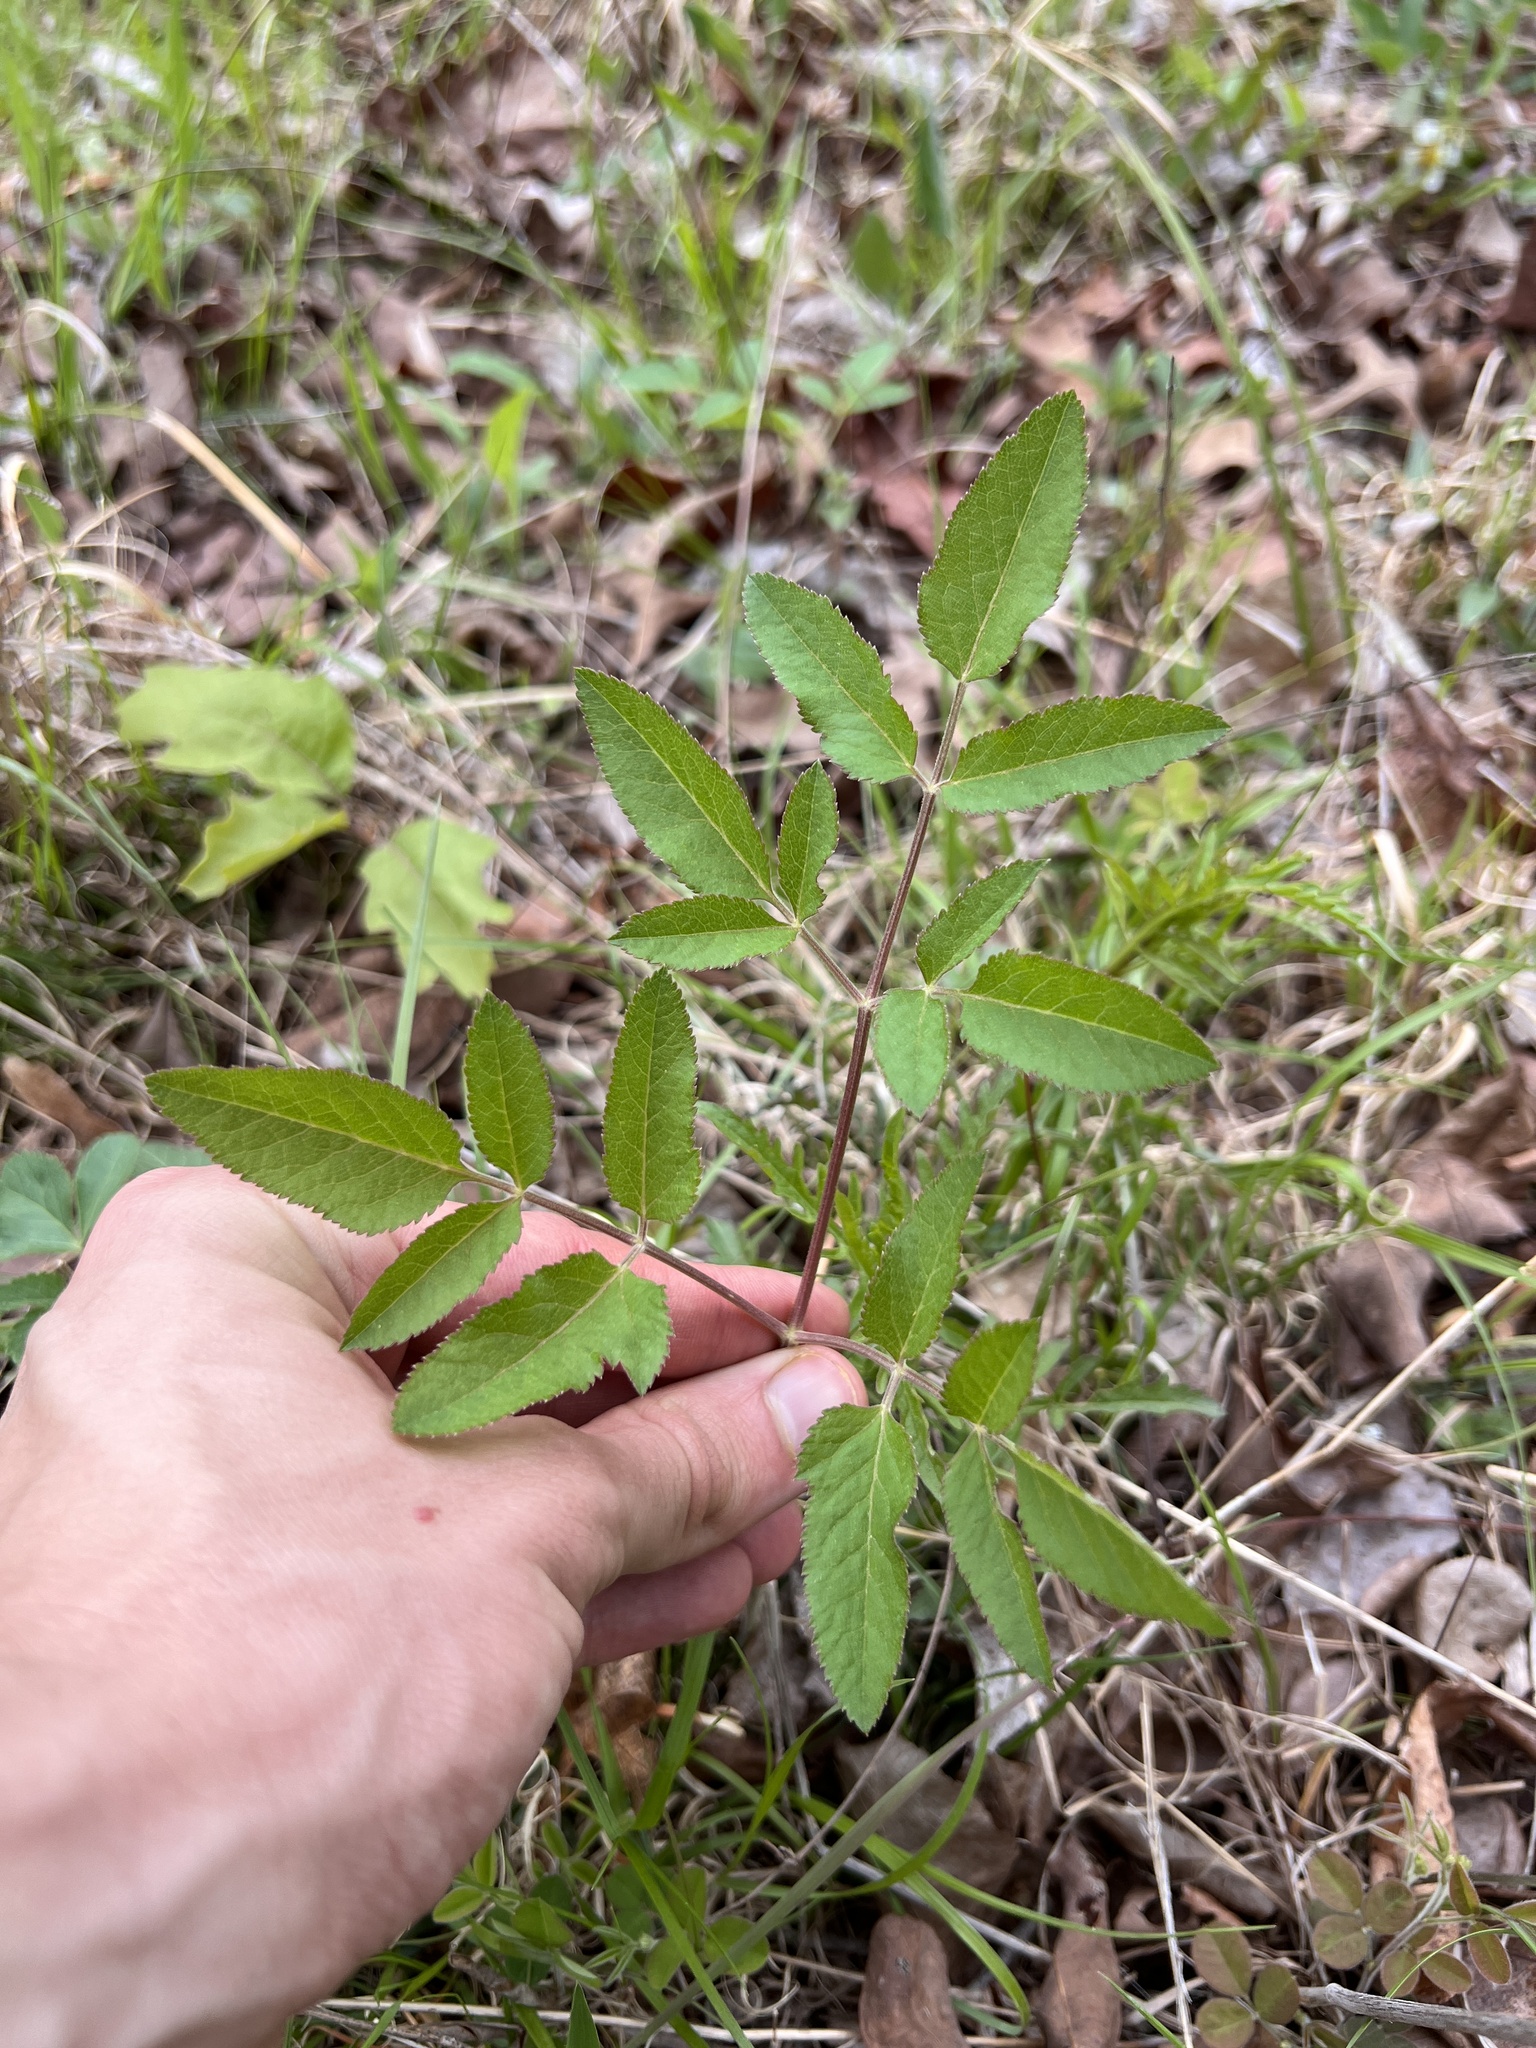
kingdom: Plantae
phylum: Tracheophyta
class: Magnoliopsida
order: Apiales
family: Apiaceae
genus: Angelica
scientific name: Angelica venenosa
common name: Hairy angelica
